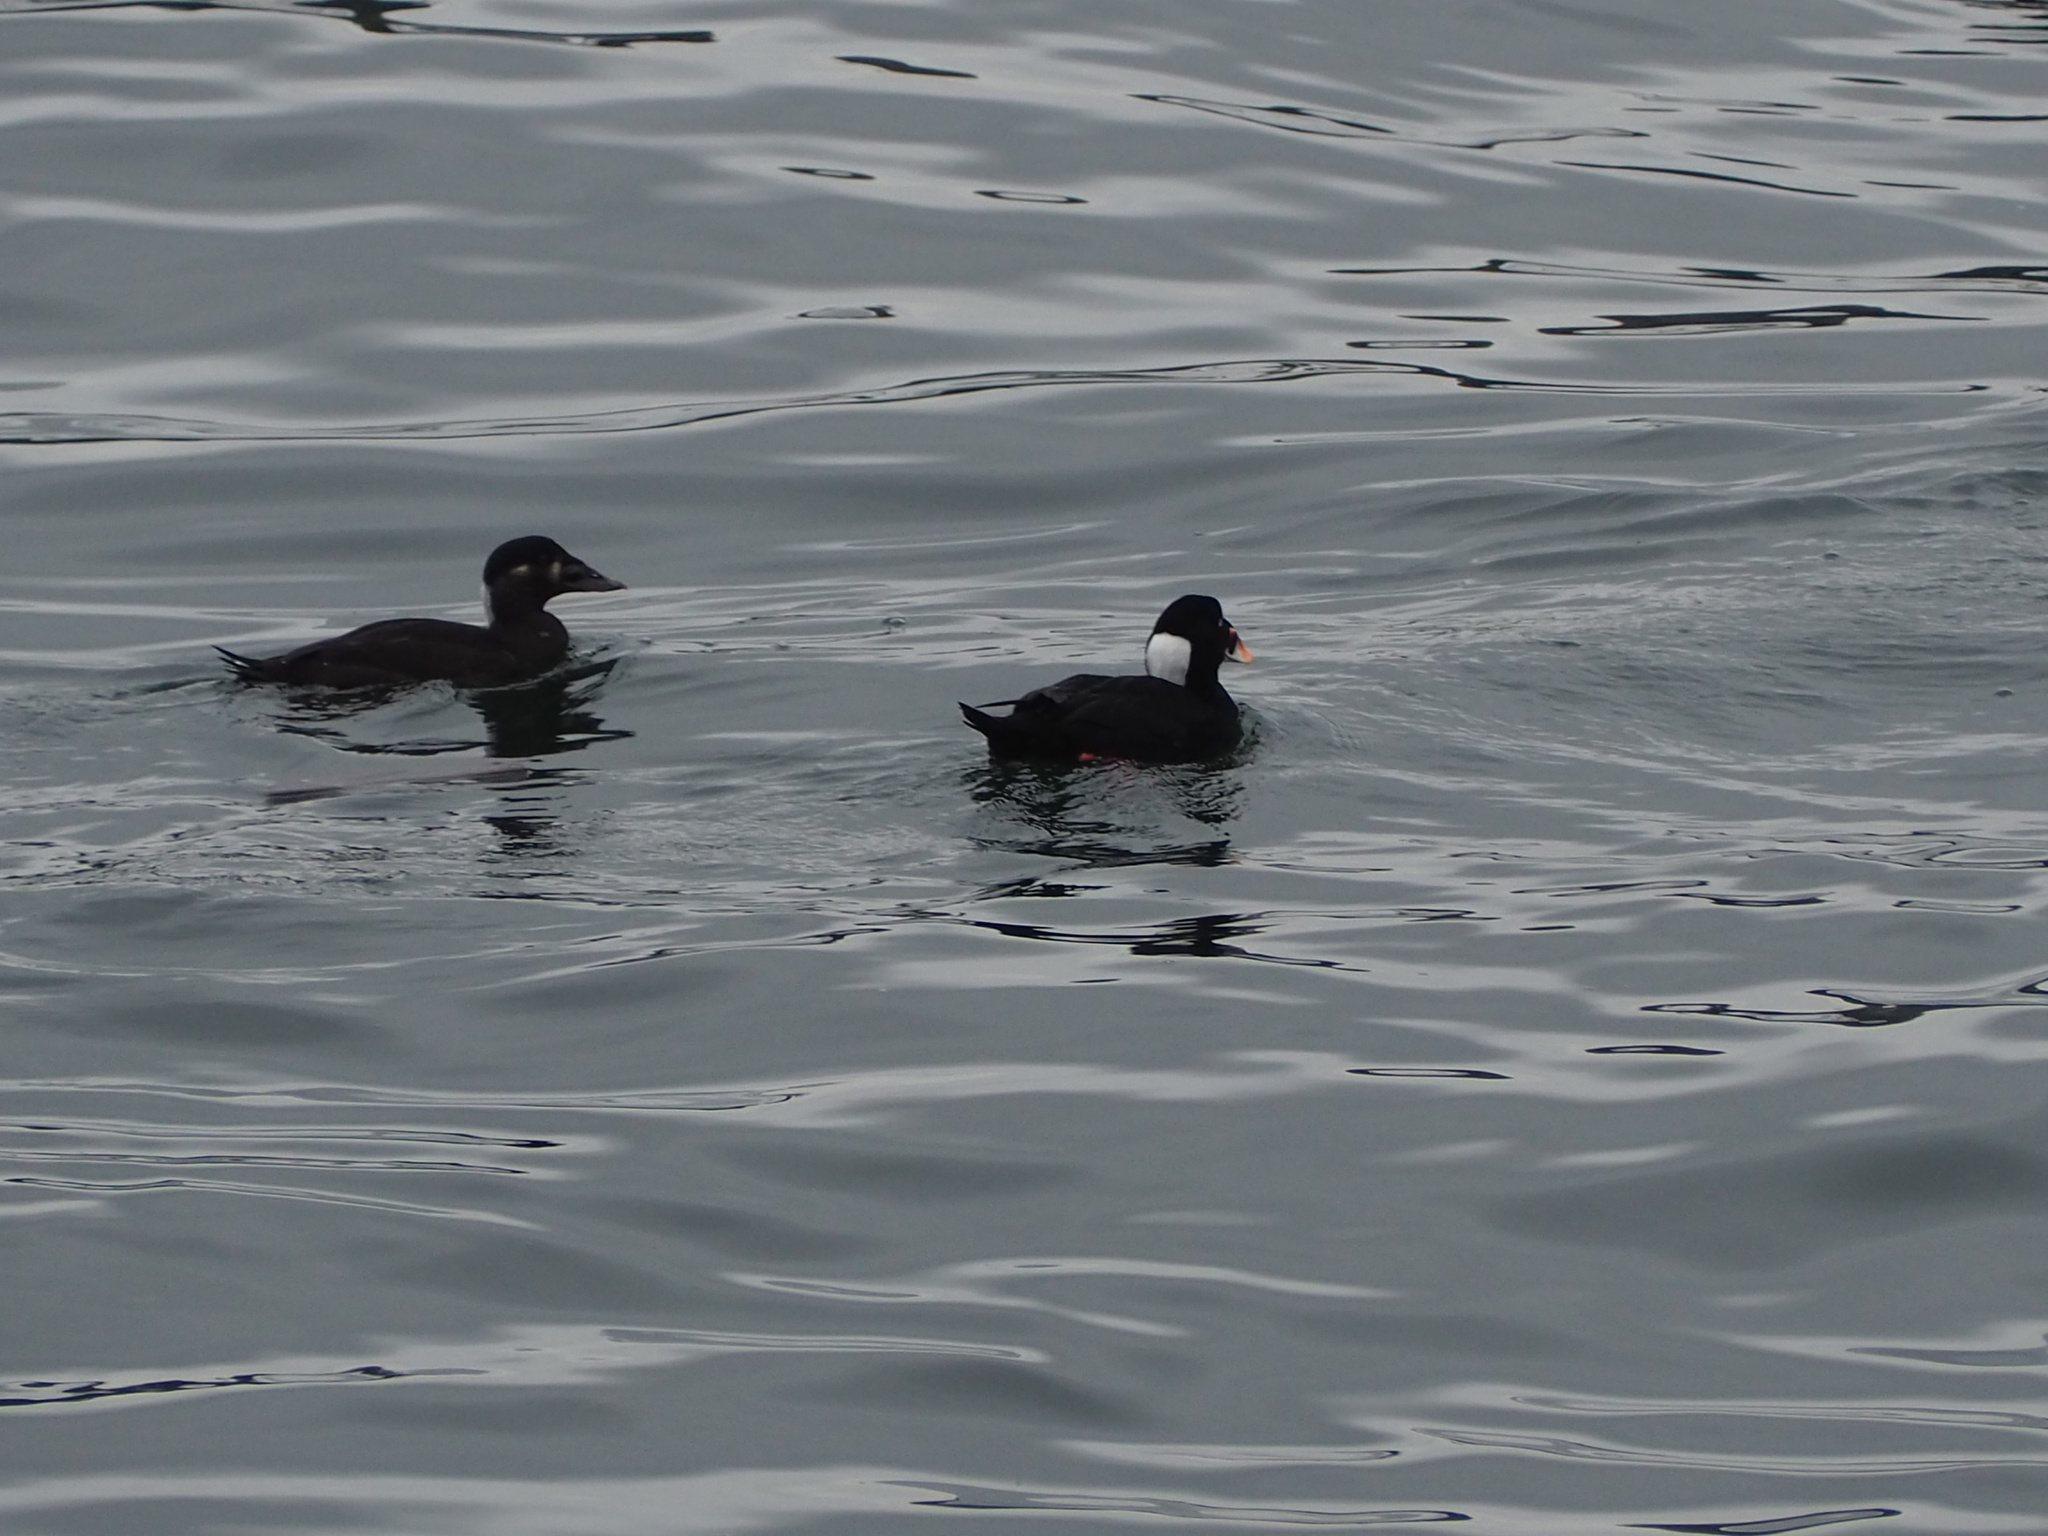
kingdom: Animalia
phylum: Chordata
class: Aves
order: Anseriformes
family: Anatidae
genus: Melanitta
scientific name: Melanitta perspicillata
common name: Surf scoter
